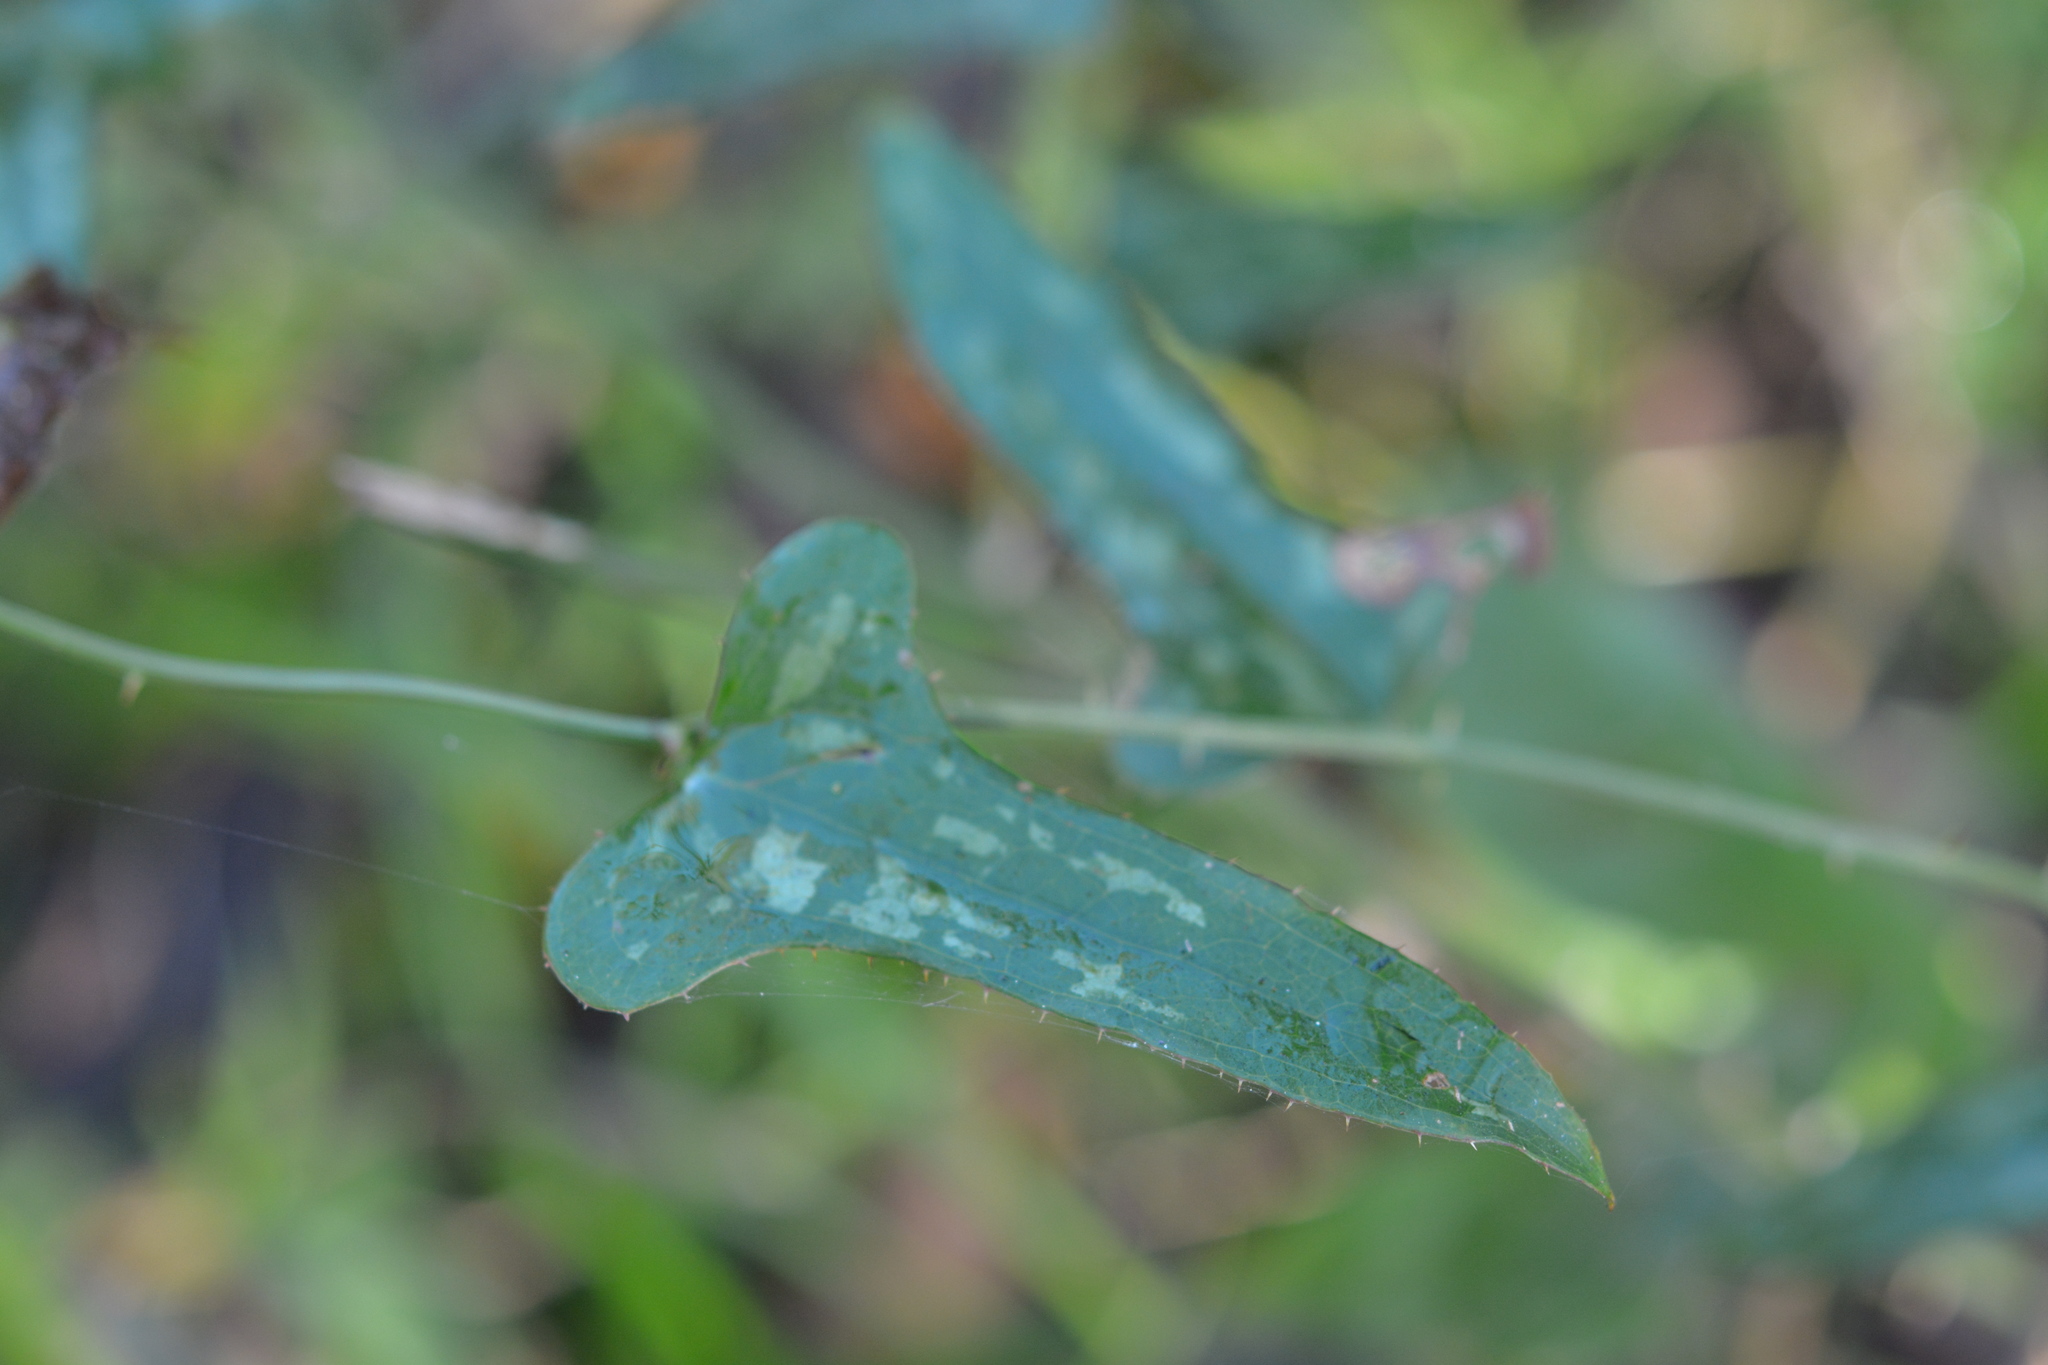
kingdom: Plantae
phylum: Tracheophyta
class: Liliopsida
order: Liliales
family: Smilacaceae
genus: Smilax
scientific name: Smilax bona-nox
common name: Catbrier
